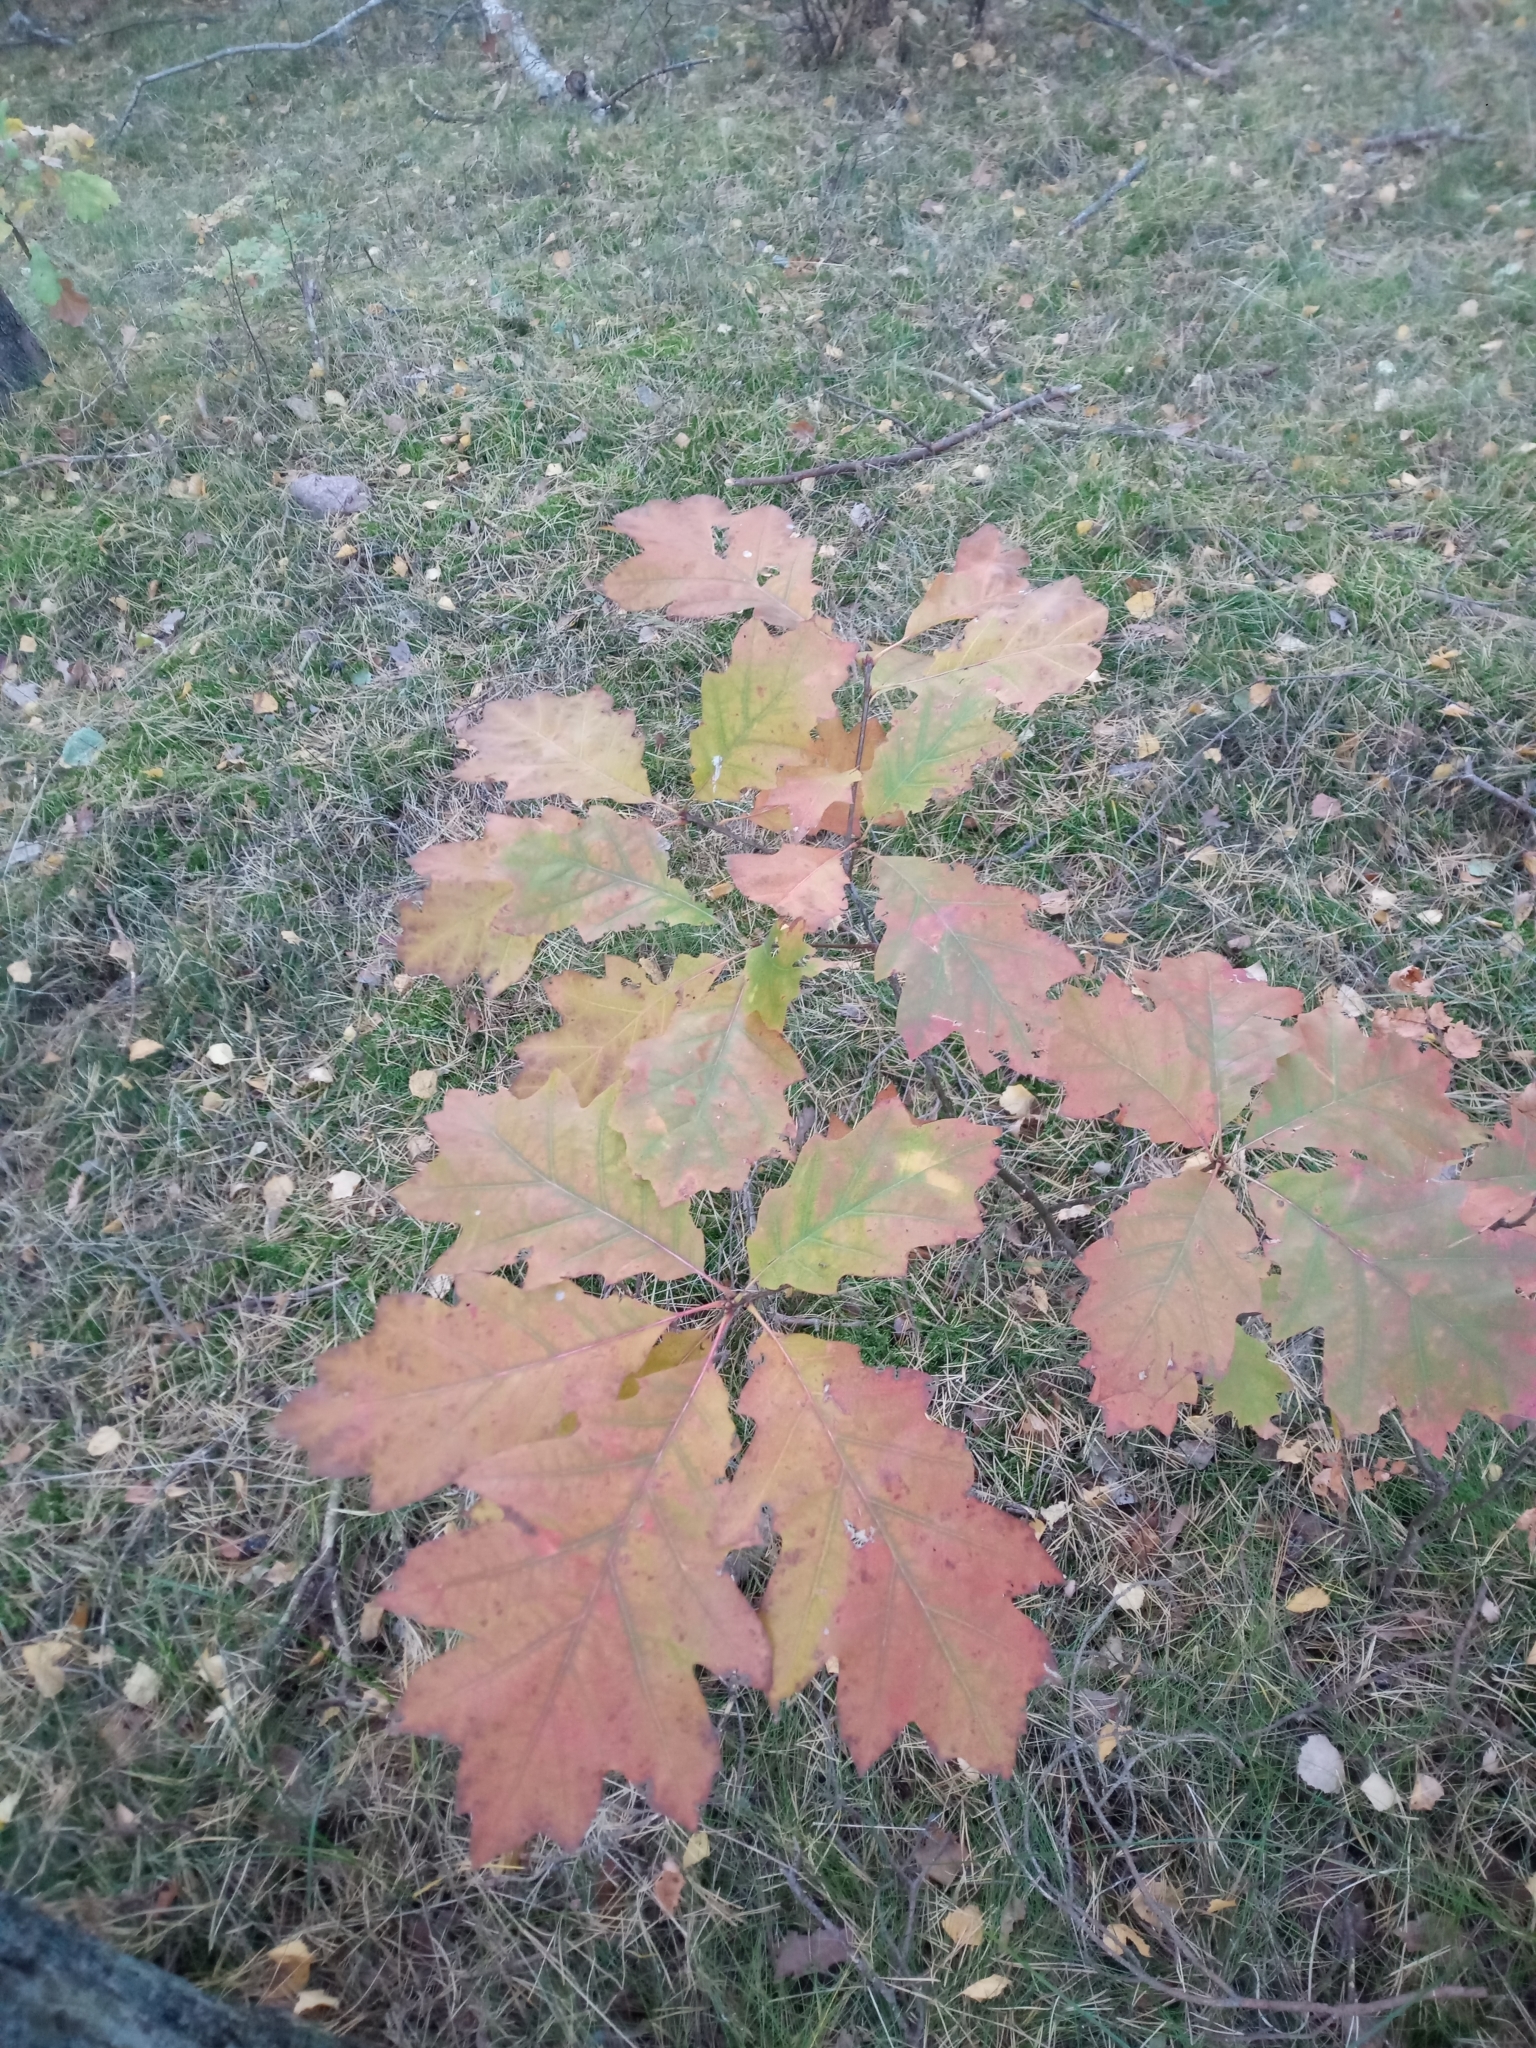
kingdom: Plantae
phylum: Tracheophyta
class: Magnoliopsida
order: Fagales
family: Fagaceae
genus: Quercus
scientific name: Quercus rubra
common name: Red oak
